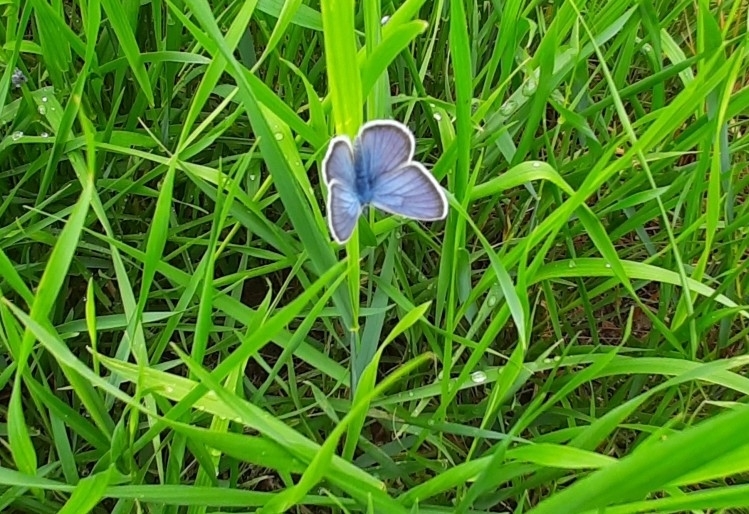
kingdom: Animalia
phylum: Arthropoda
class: Insecta
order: Lepidoptera
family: Lycaenidae
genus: Cyaniris
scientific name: Cyaniris semiargus
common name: Mazarine blue
